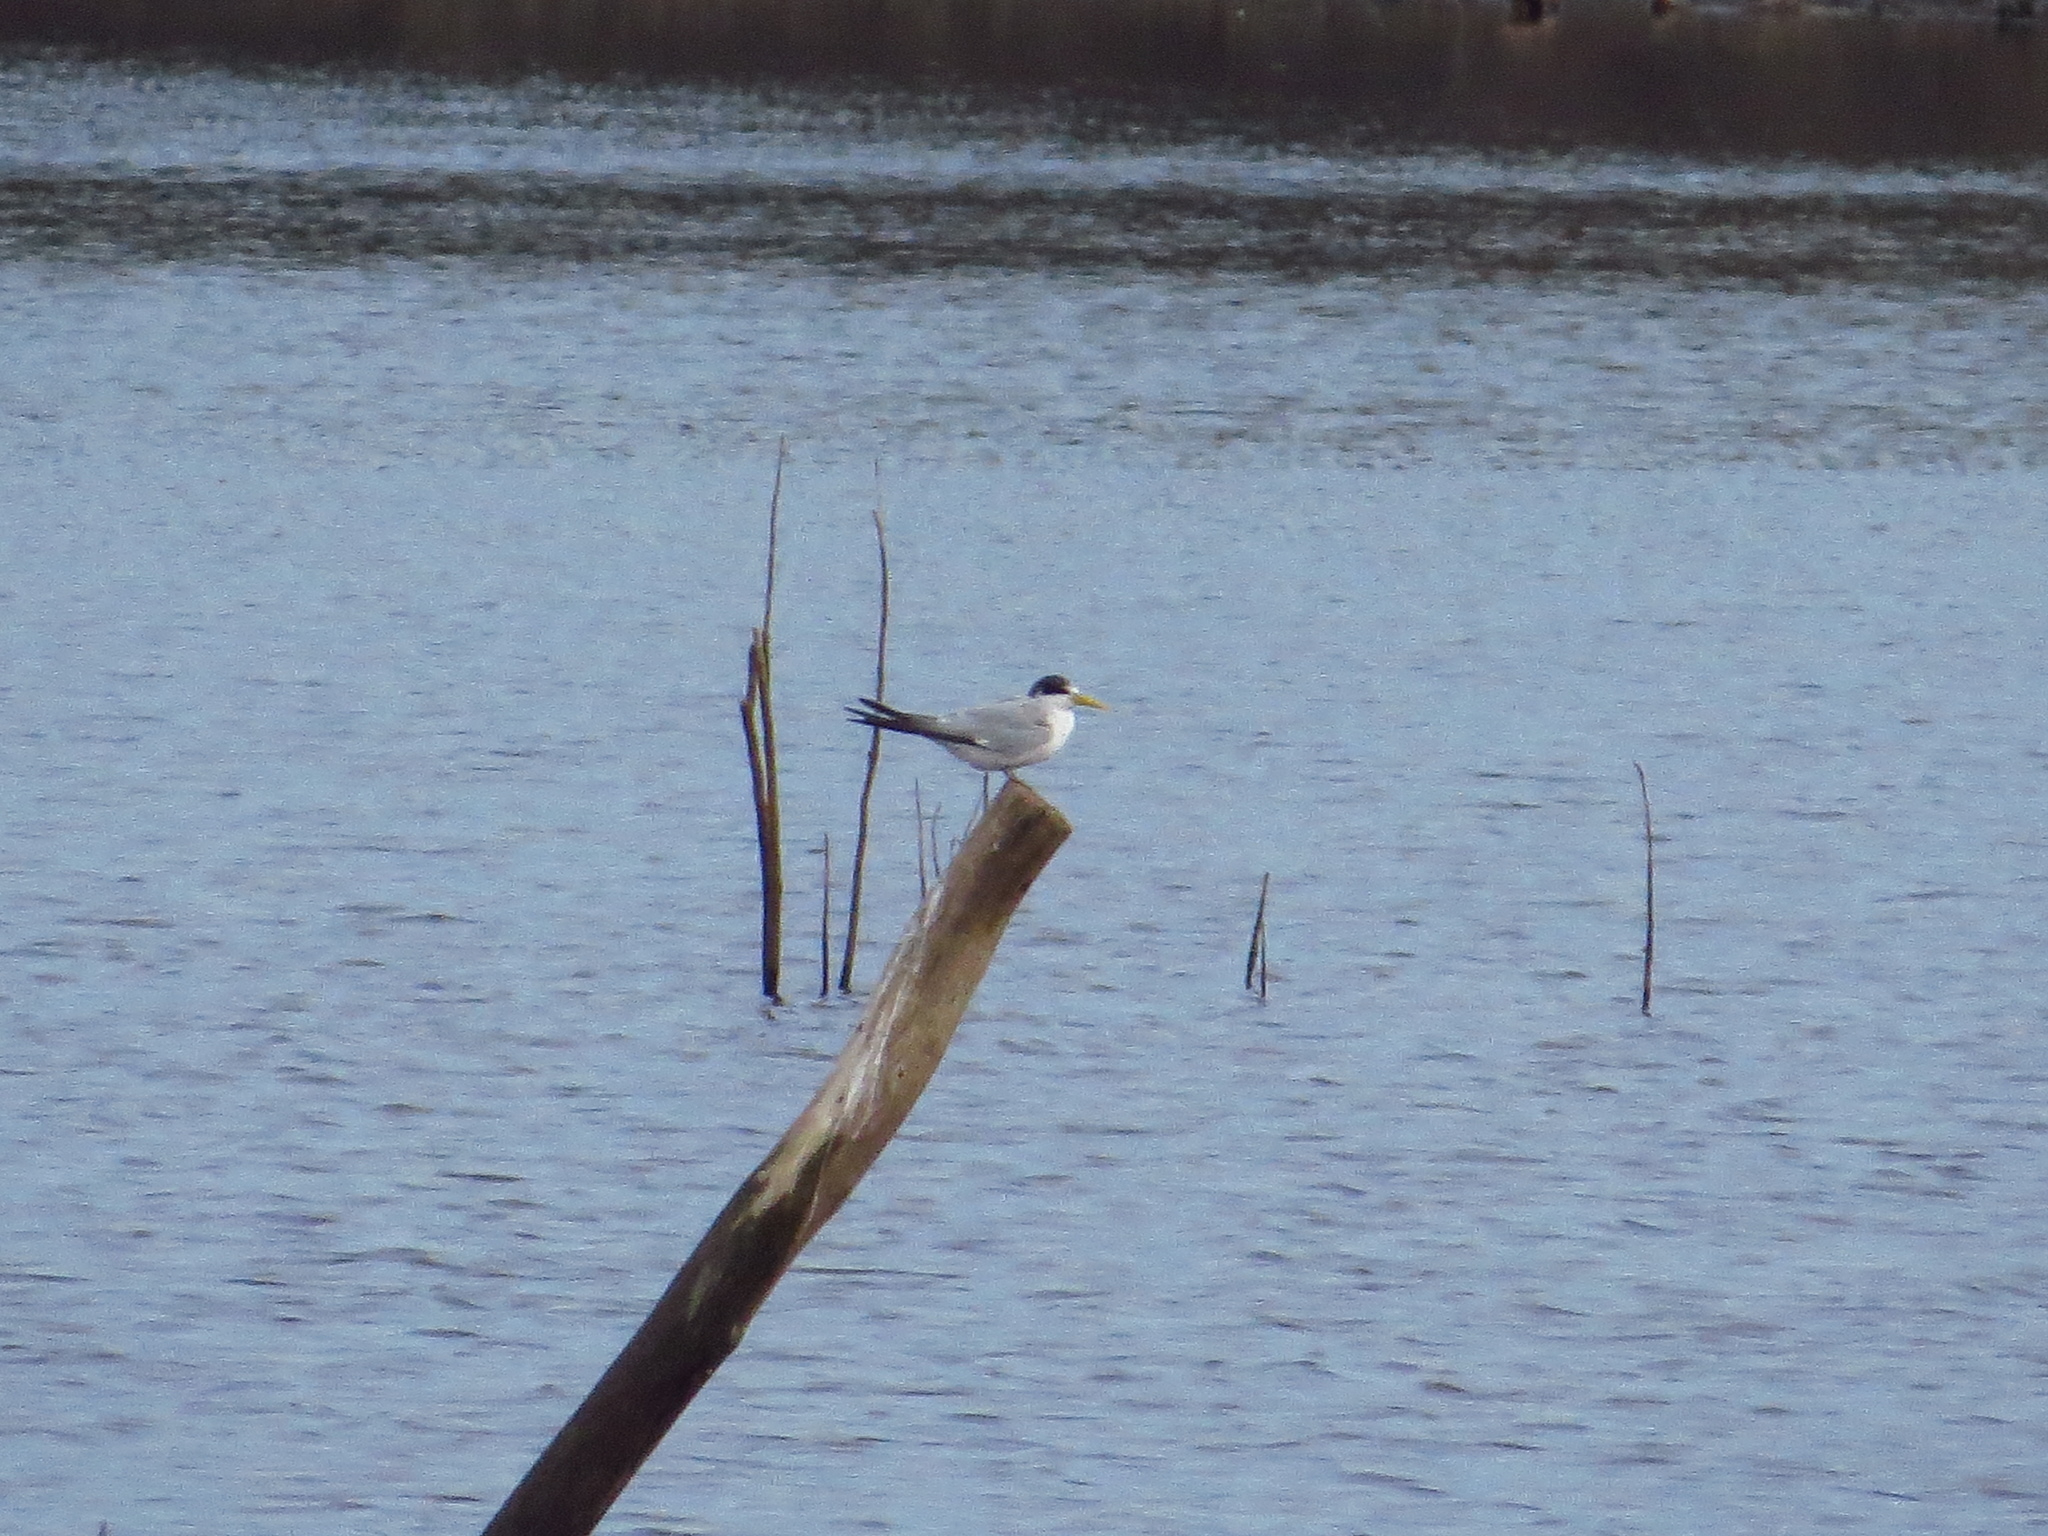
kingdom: Animalia
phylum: Chordata
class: Aves
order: Charadriiformes
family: Laridae
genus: Sternula
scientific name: Sternula superciliaris
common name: Yellow-billed tern
